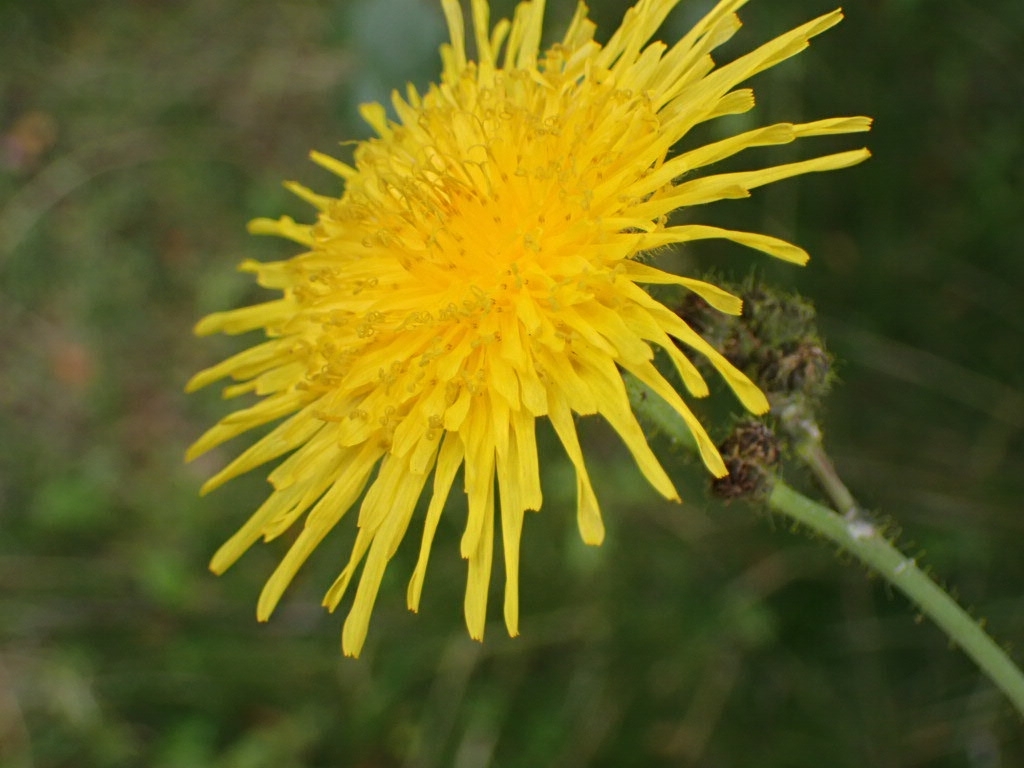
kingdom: Plantae
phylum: Tracheophyta
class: Magnoliopsida
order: Asterales
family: Asteraceae
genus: Sonchus
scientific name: Sonchus arvensis
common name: Perennial sow-thistle
